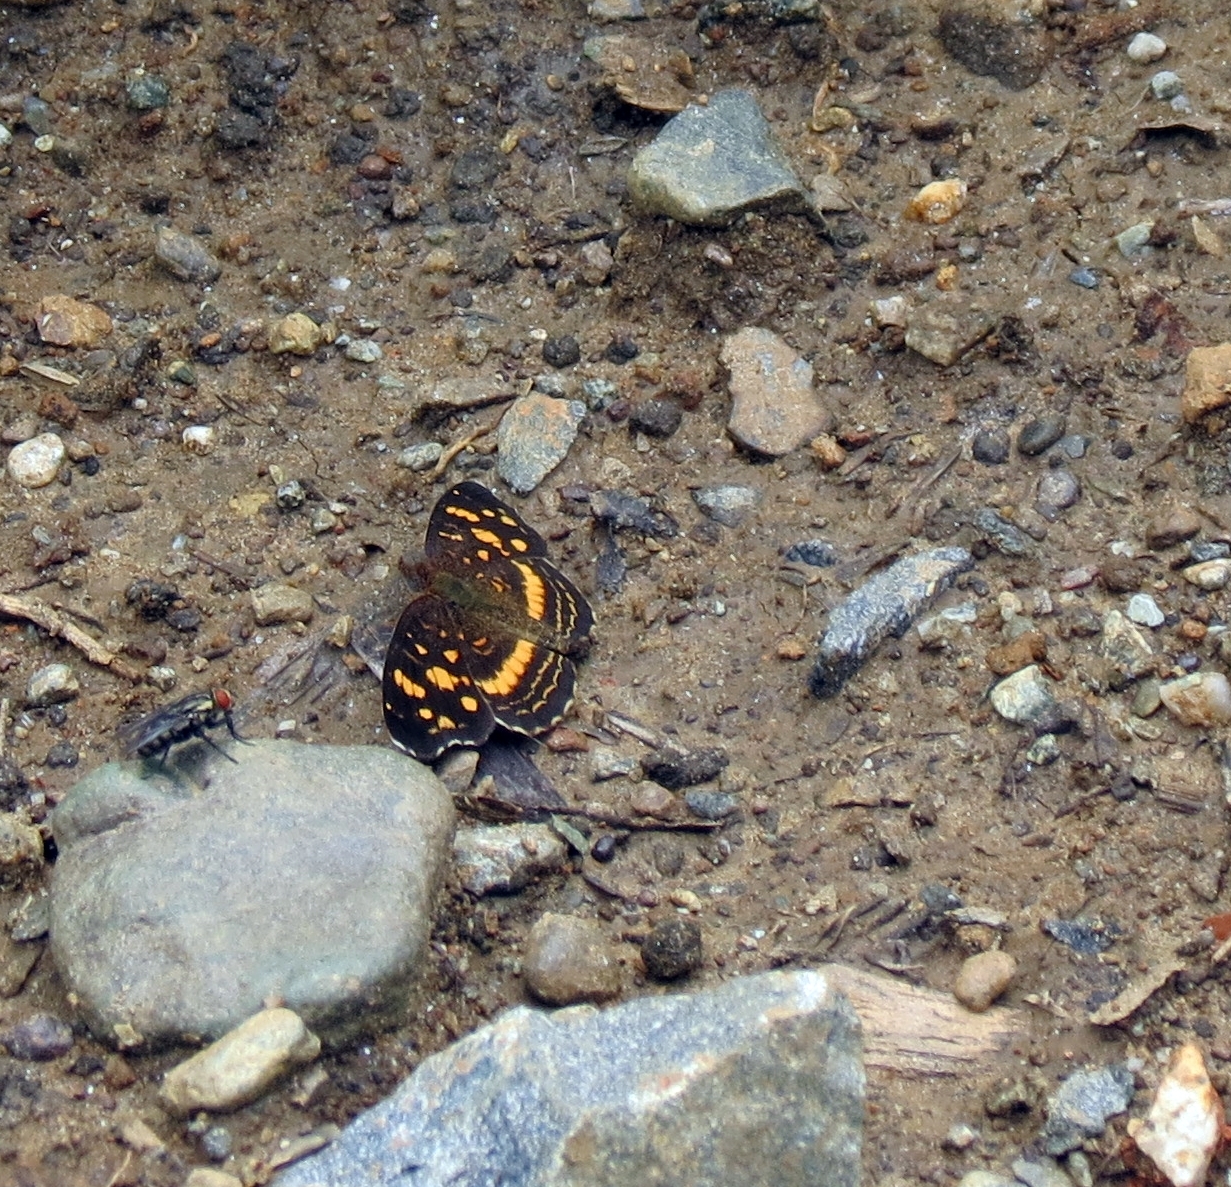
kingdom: Animalia
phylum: Arthropoda
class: Insecta
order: Lepidoptera
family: Nymphalidae
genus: Anthanassa
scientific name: Anthanassa drusilla
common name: Orange-patched crescent
